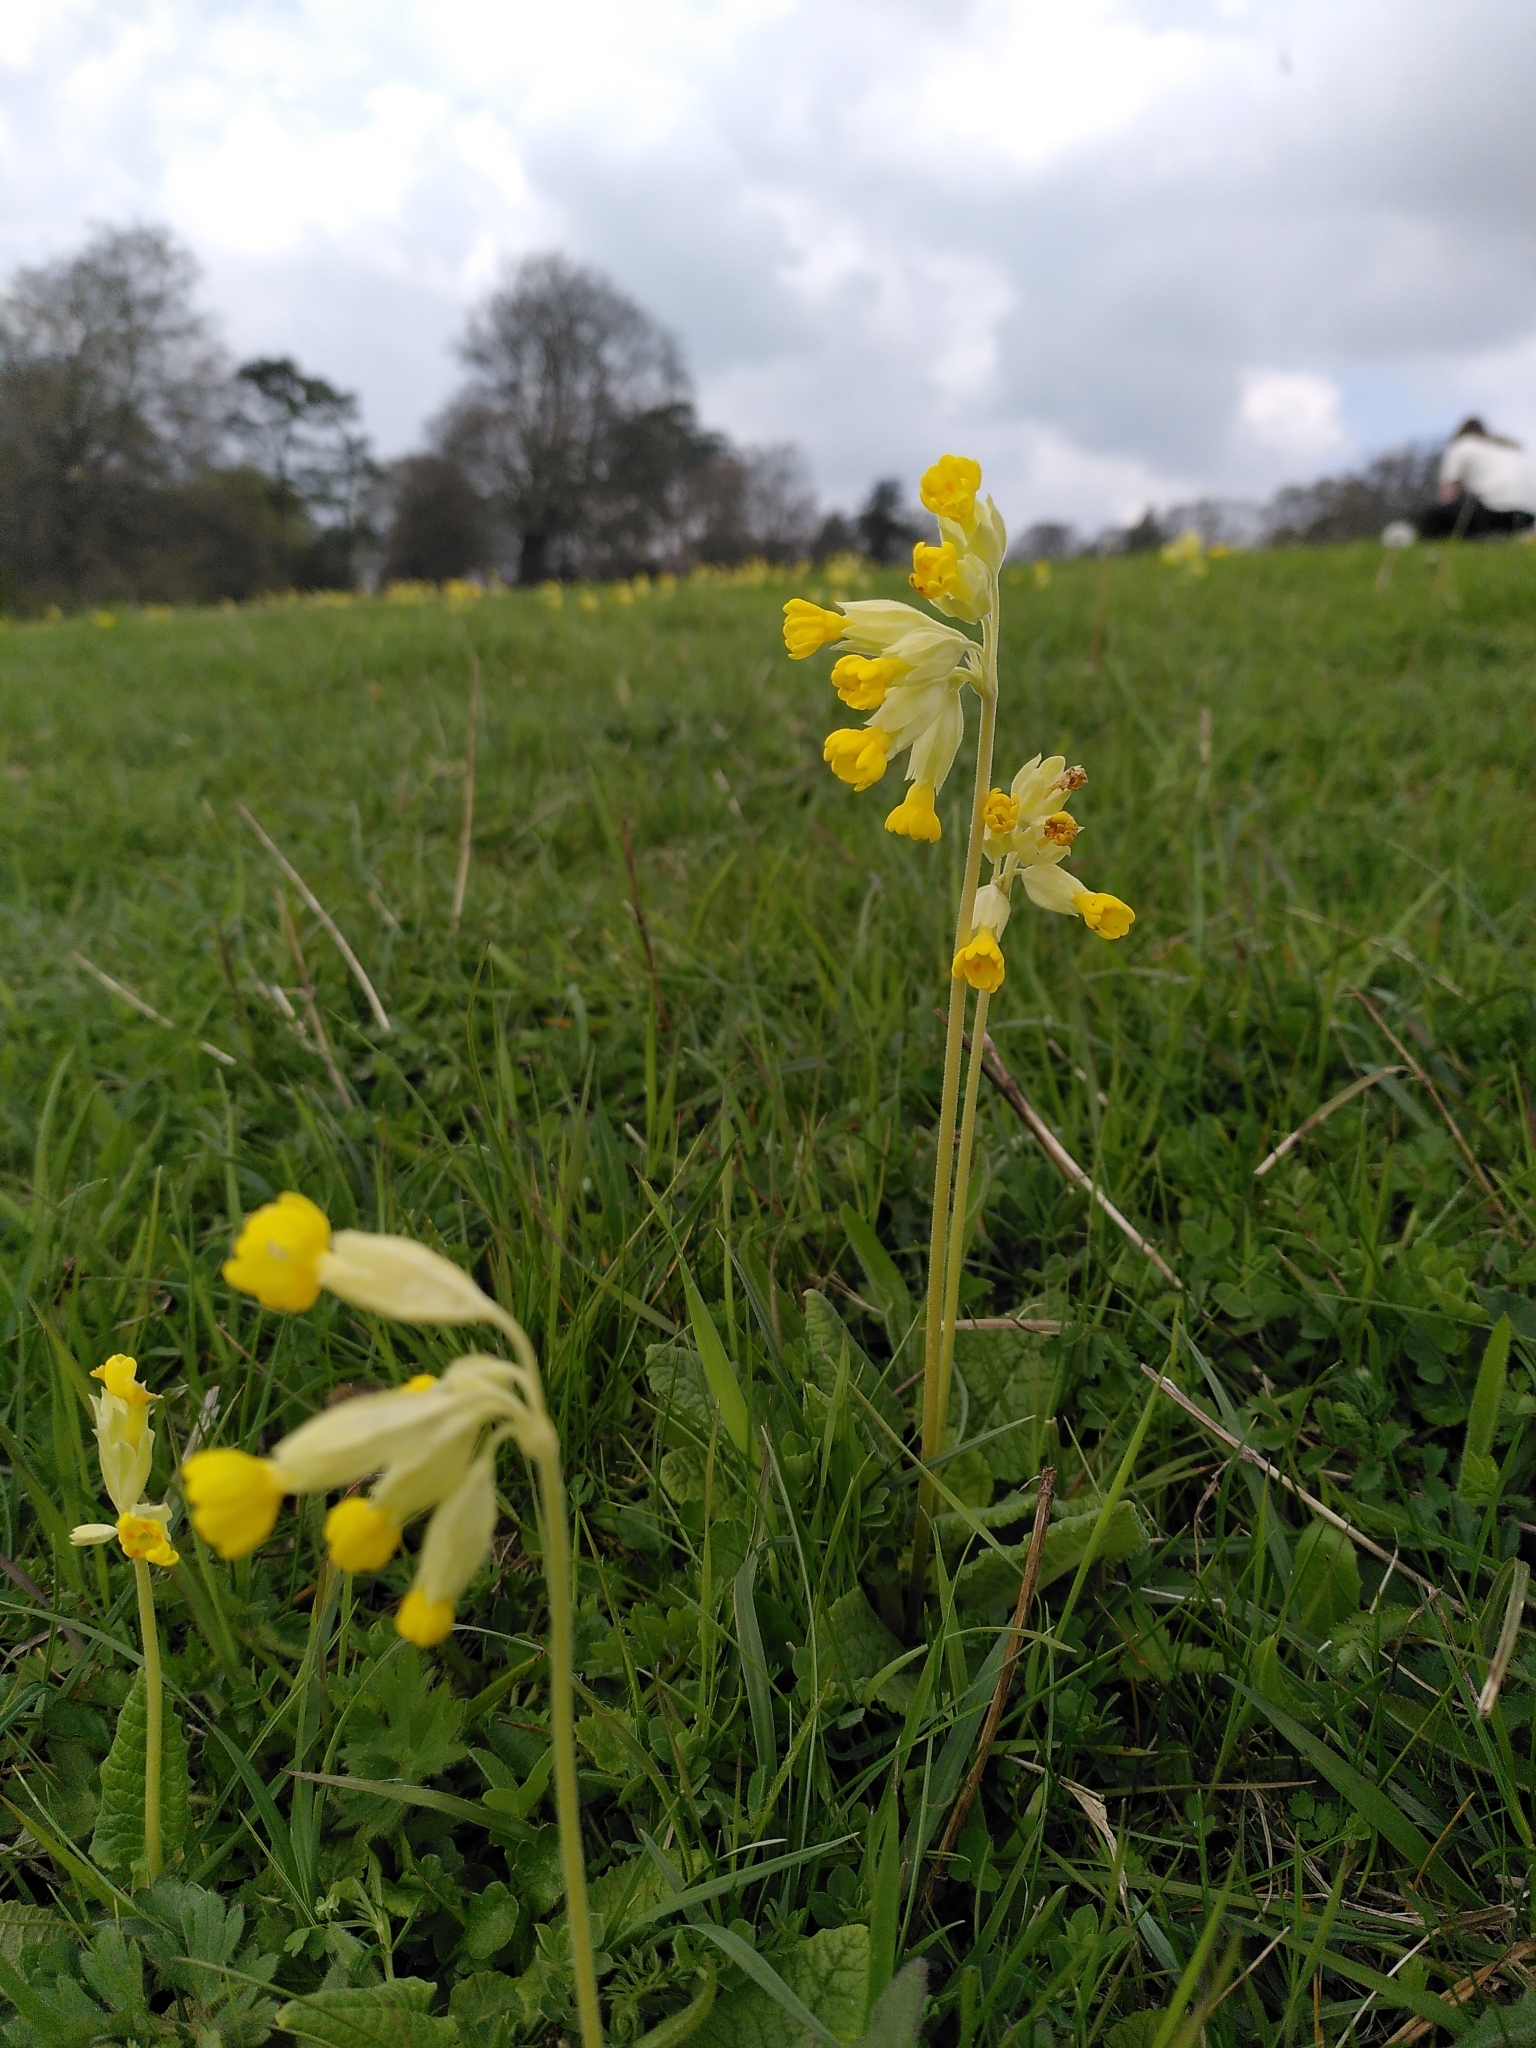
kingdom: Plantae
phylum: Tracheophyta
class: Magnoliopsida
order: Ericales
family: Primulaceae
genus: Primula
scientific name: Primula veris
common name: Cowslip
